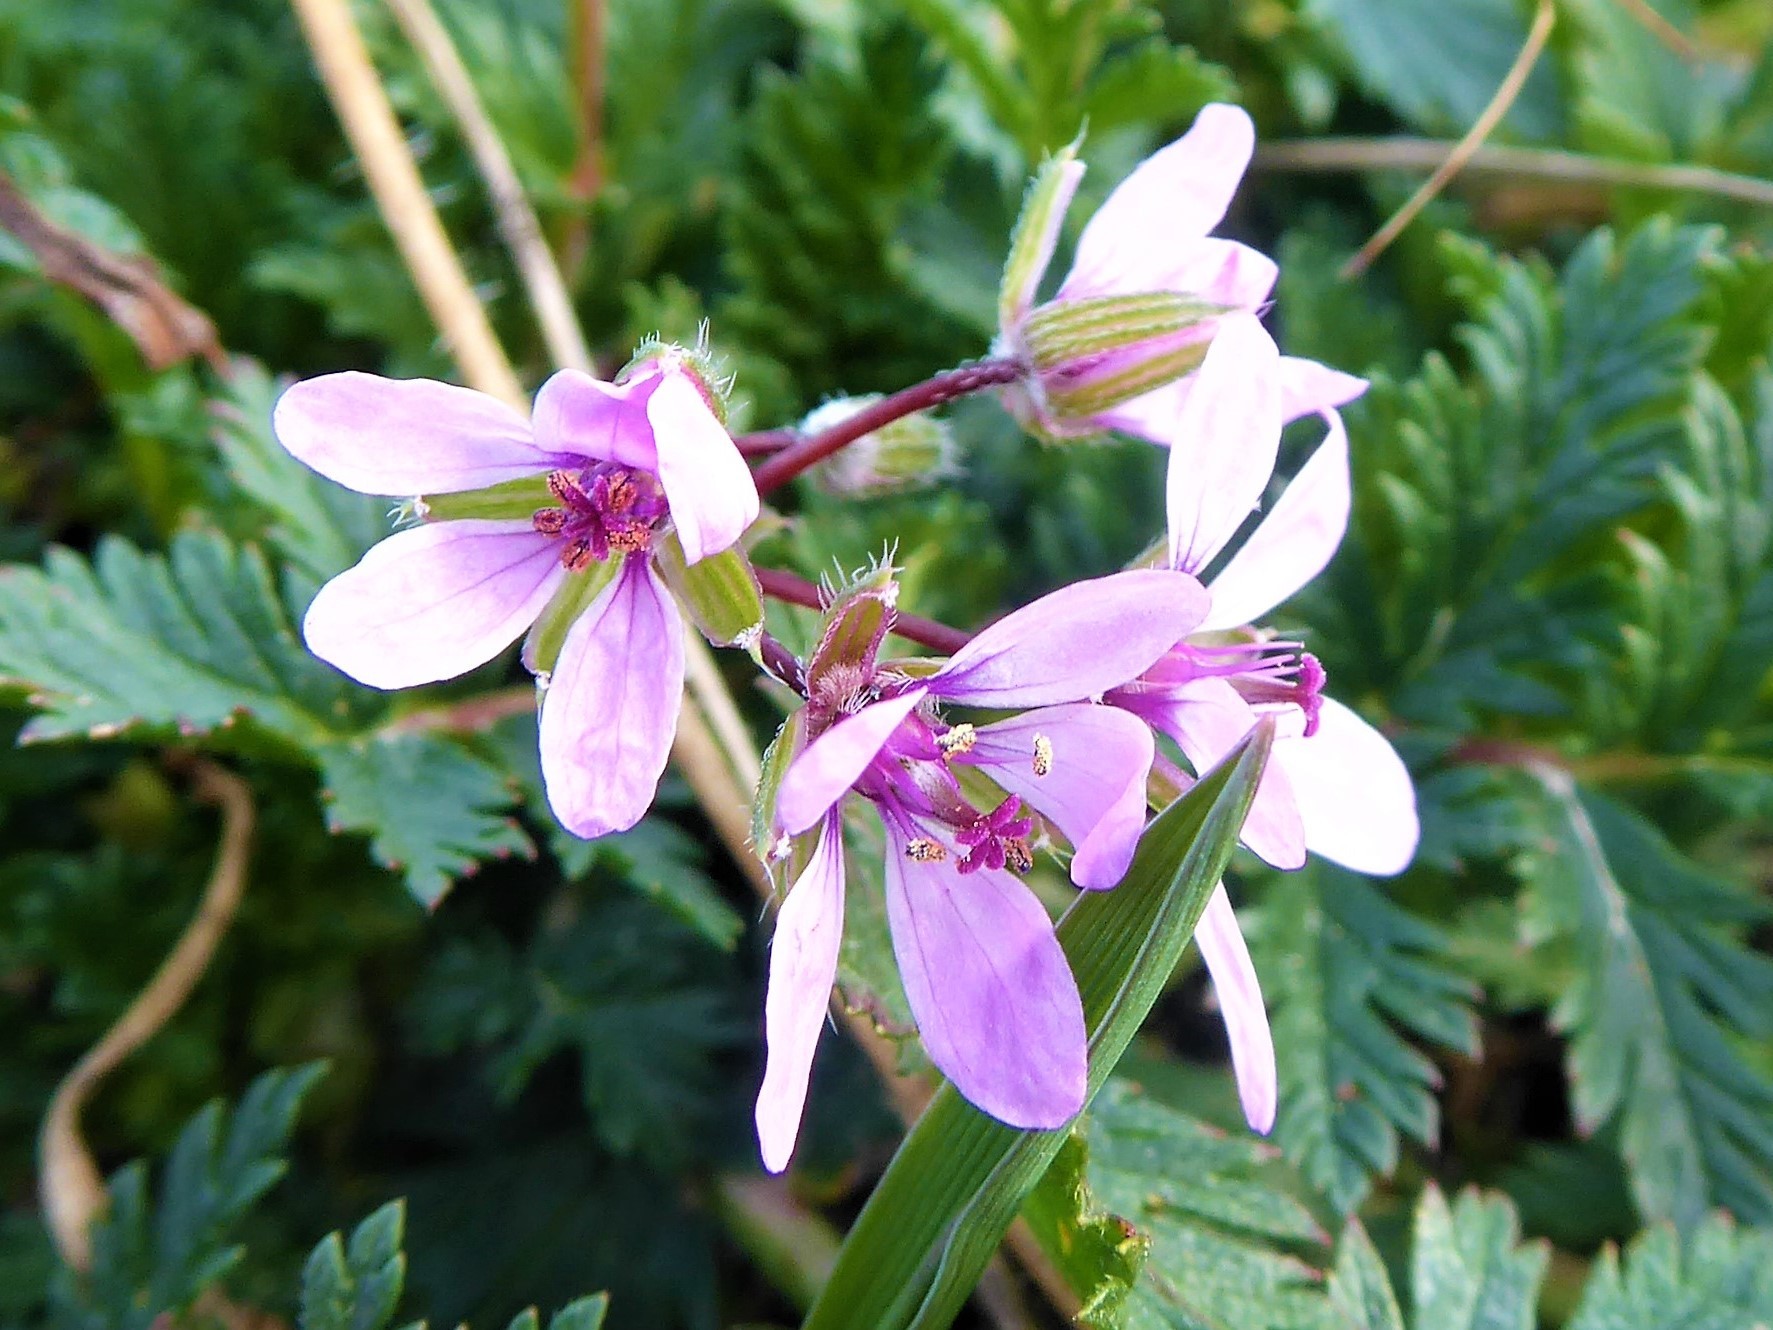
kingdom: Plantae
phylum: Tracheophyta
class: Magnoliopsida
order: Geraniales
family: Geraniaceae
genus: Erodium
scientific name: Erodium cicutarium
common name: Common stork's-bill
